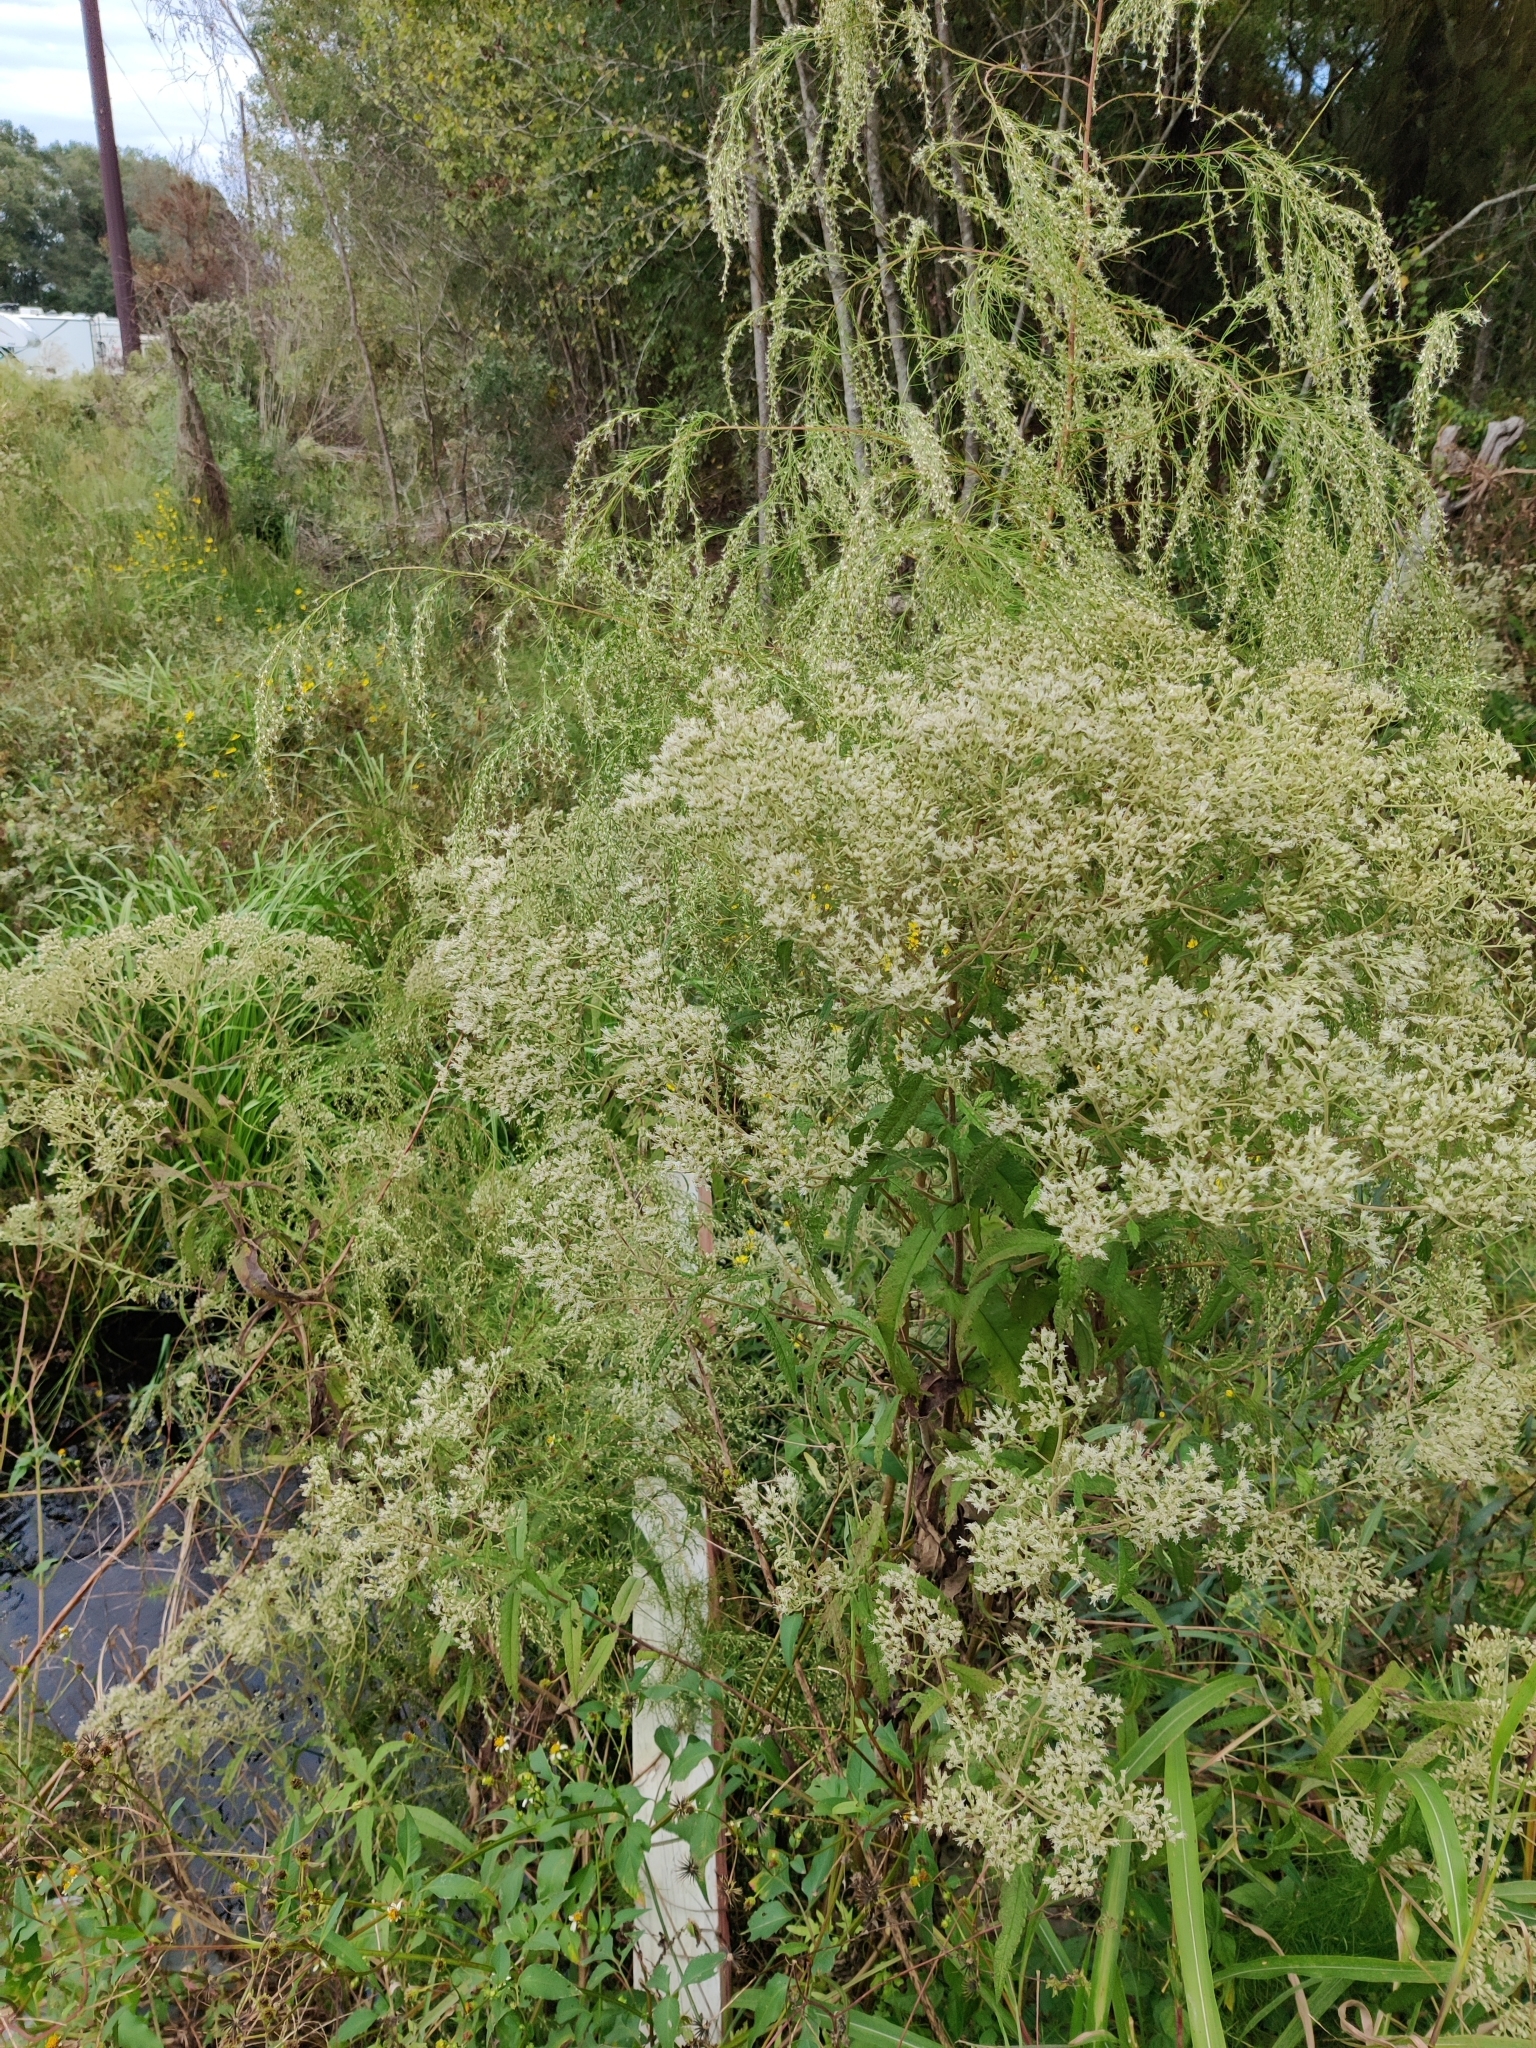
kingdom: Plantae
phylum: Tracheophyta
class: Magnoliopsida
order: Asterales
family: Asteraceae
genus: Eupatorium
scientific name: Eupatorium perfoliatum
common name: Boneset
